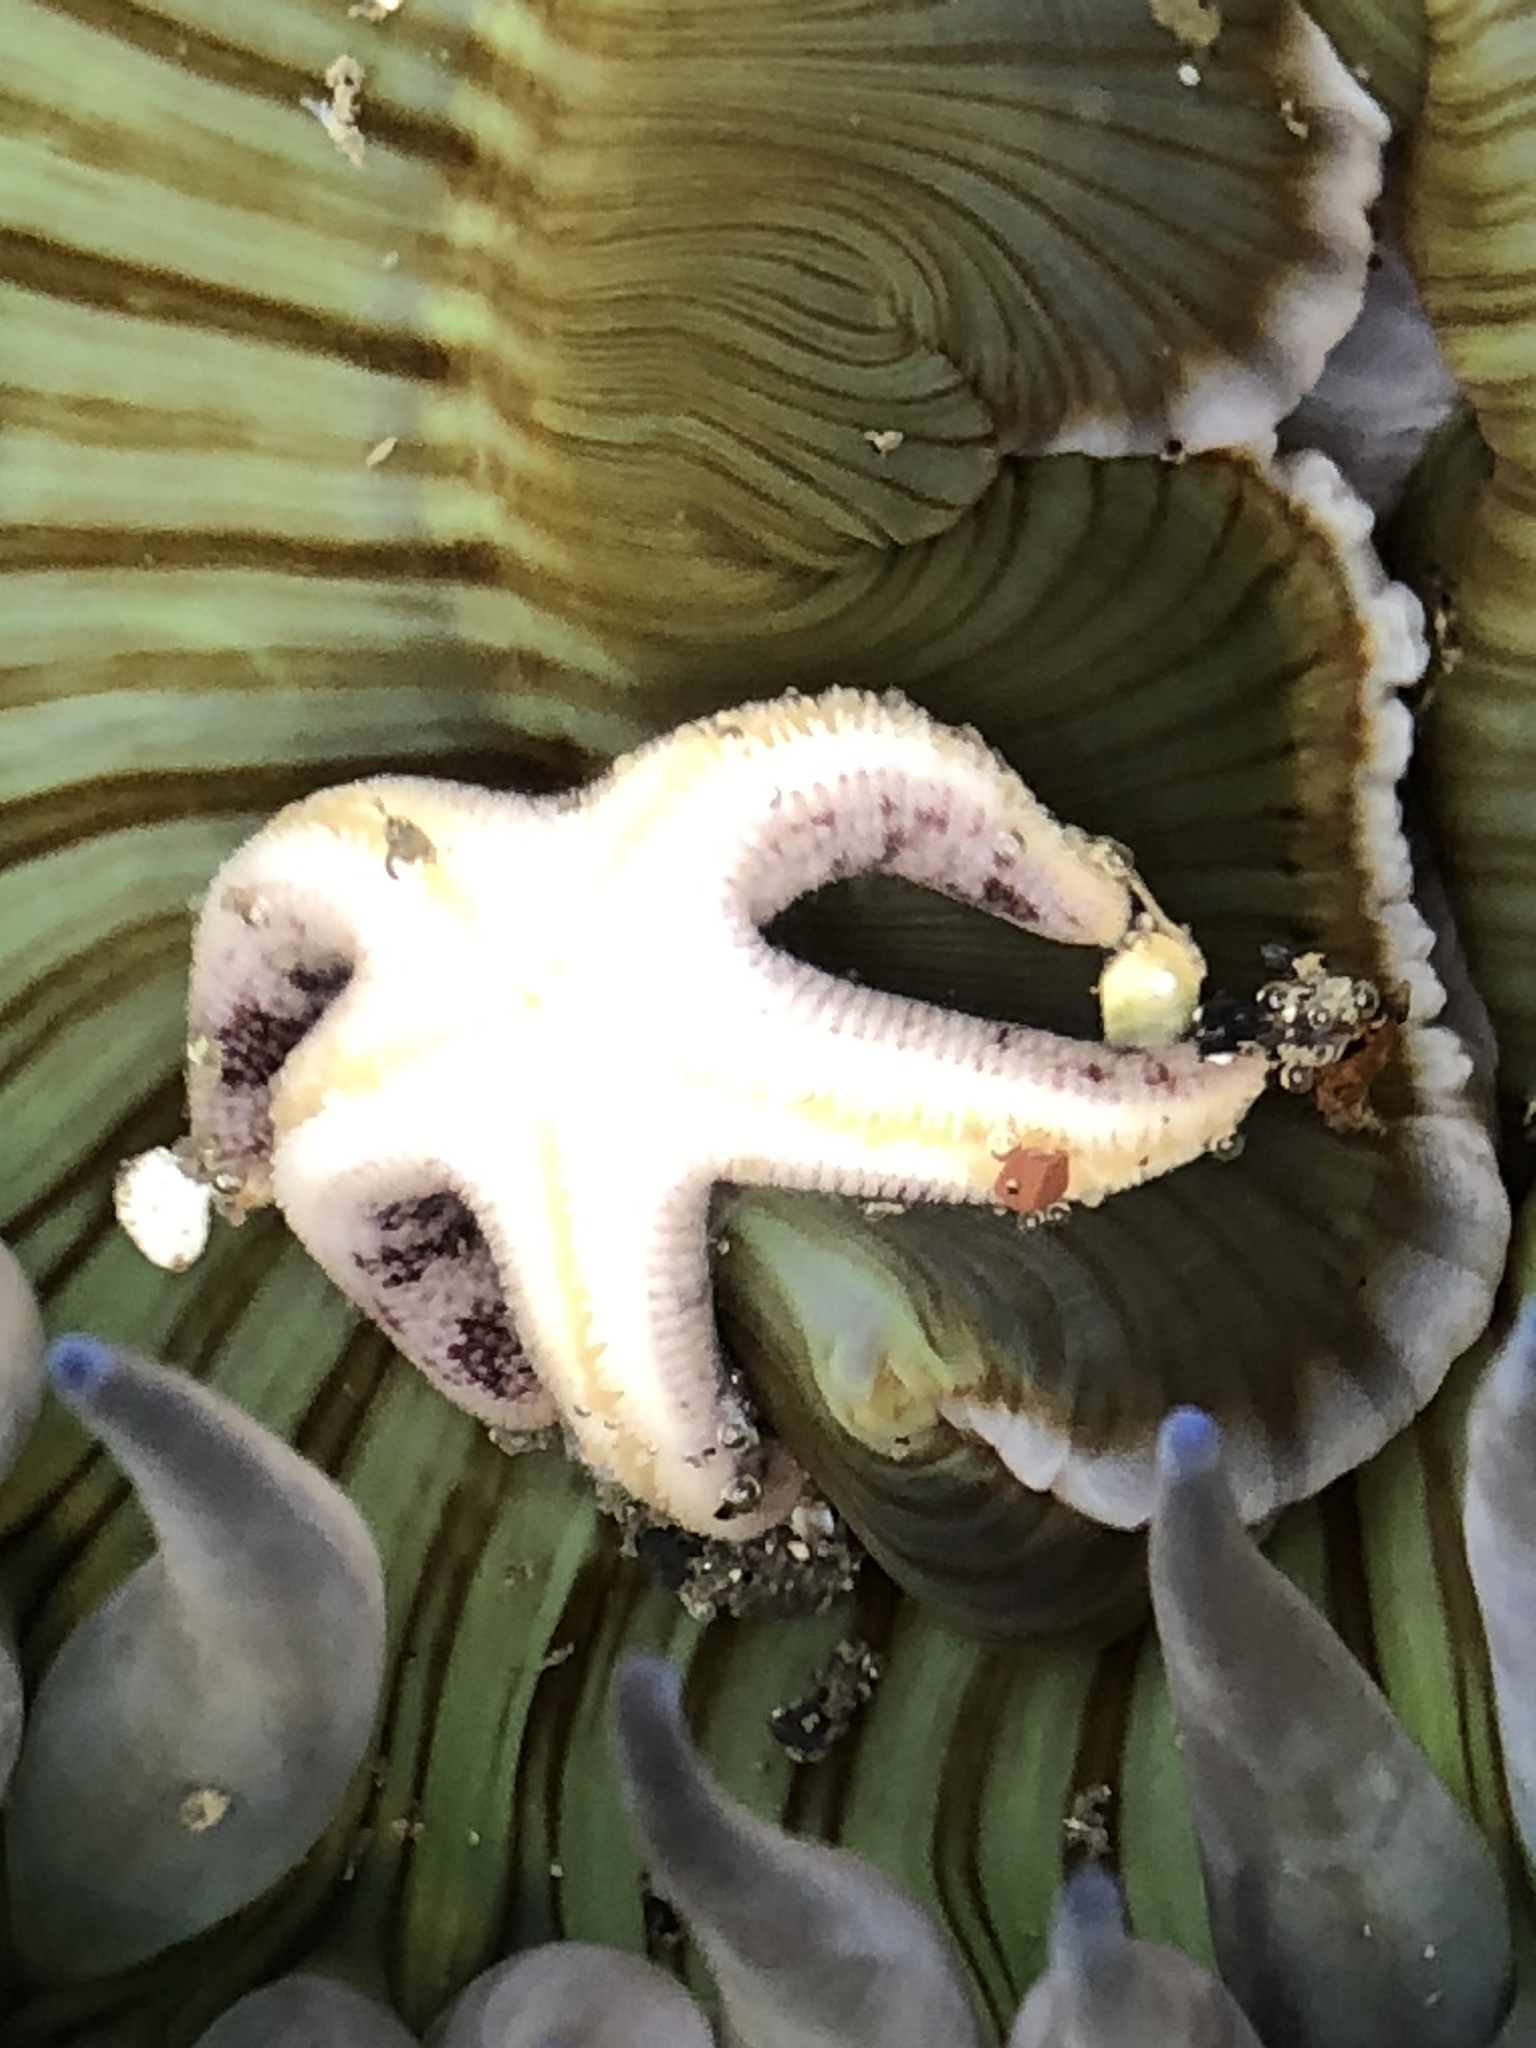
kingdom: Animalia
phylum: Echinodermata
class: Asteroidea
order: Spinulosida
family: Echinasteridae
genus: Henricia
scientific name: Henricia pumila
